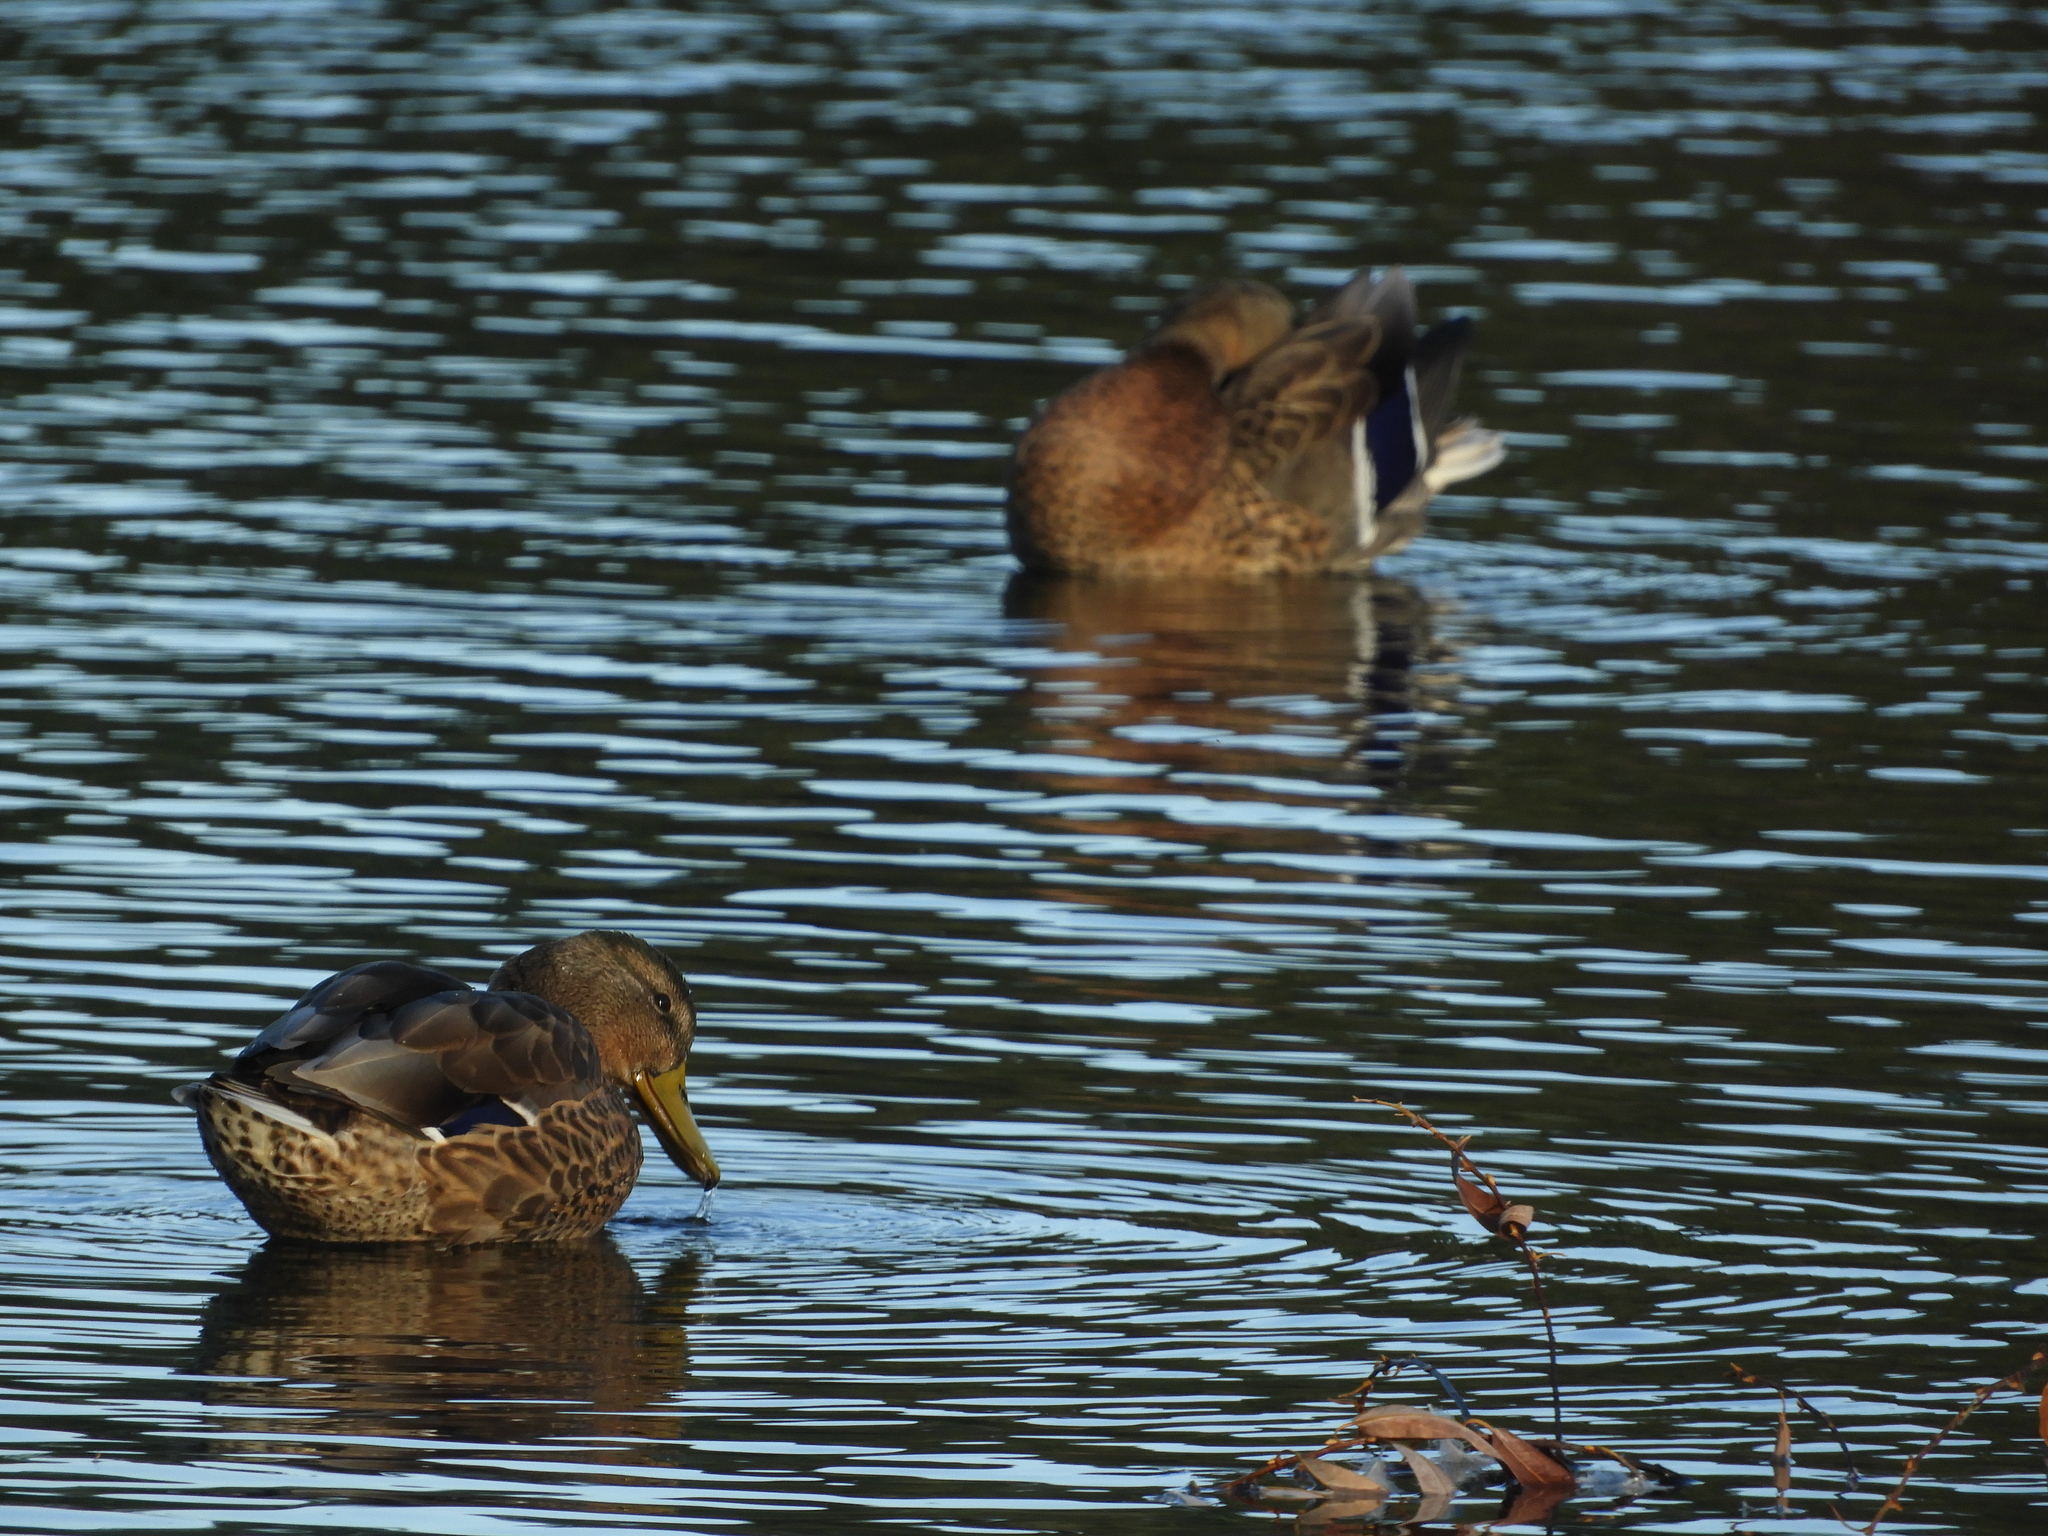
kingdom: Animalia
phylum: Chordata
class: Aves
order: Anseriformes
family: Anatidae
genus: Anas
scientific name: Anas platyrhynchos
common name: Mallard
